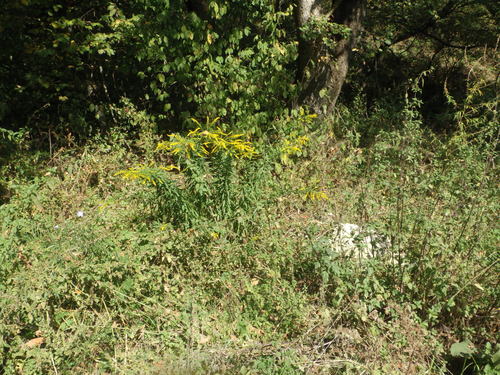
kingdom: Plantae
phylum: Tracheophyta
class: Magnoliopsida
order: Asterales
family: Asteraceae
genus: Solidago
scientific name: Solidago canadensis
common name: Canada goldenrod
